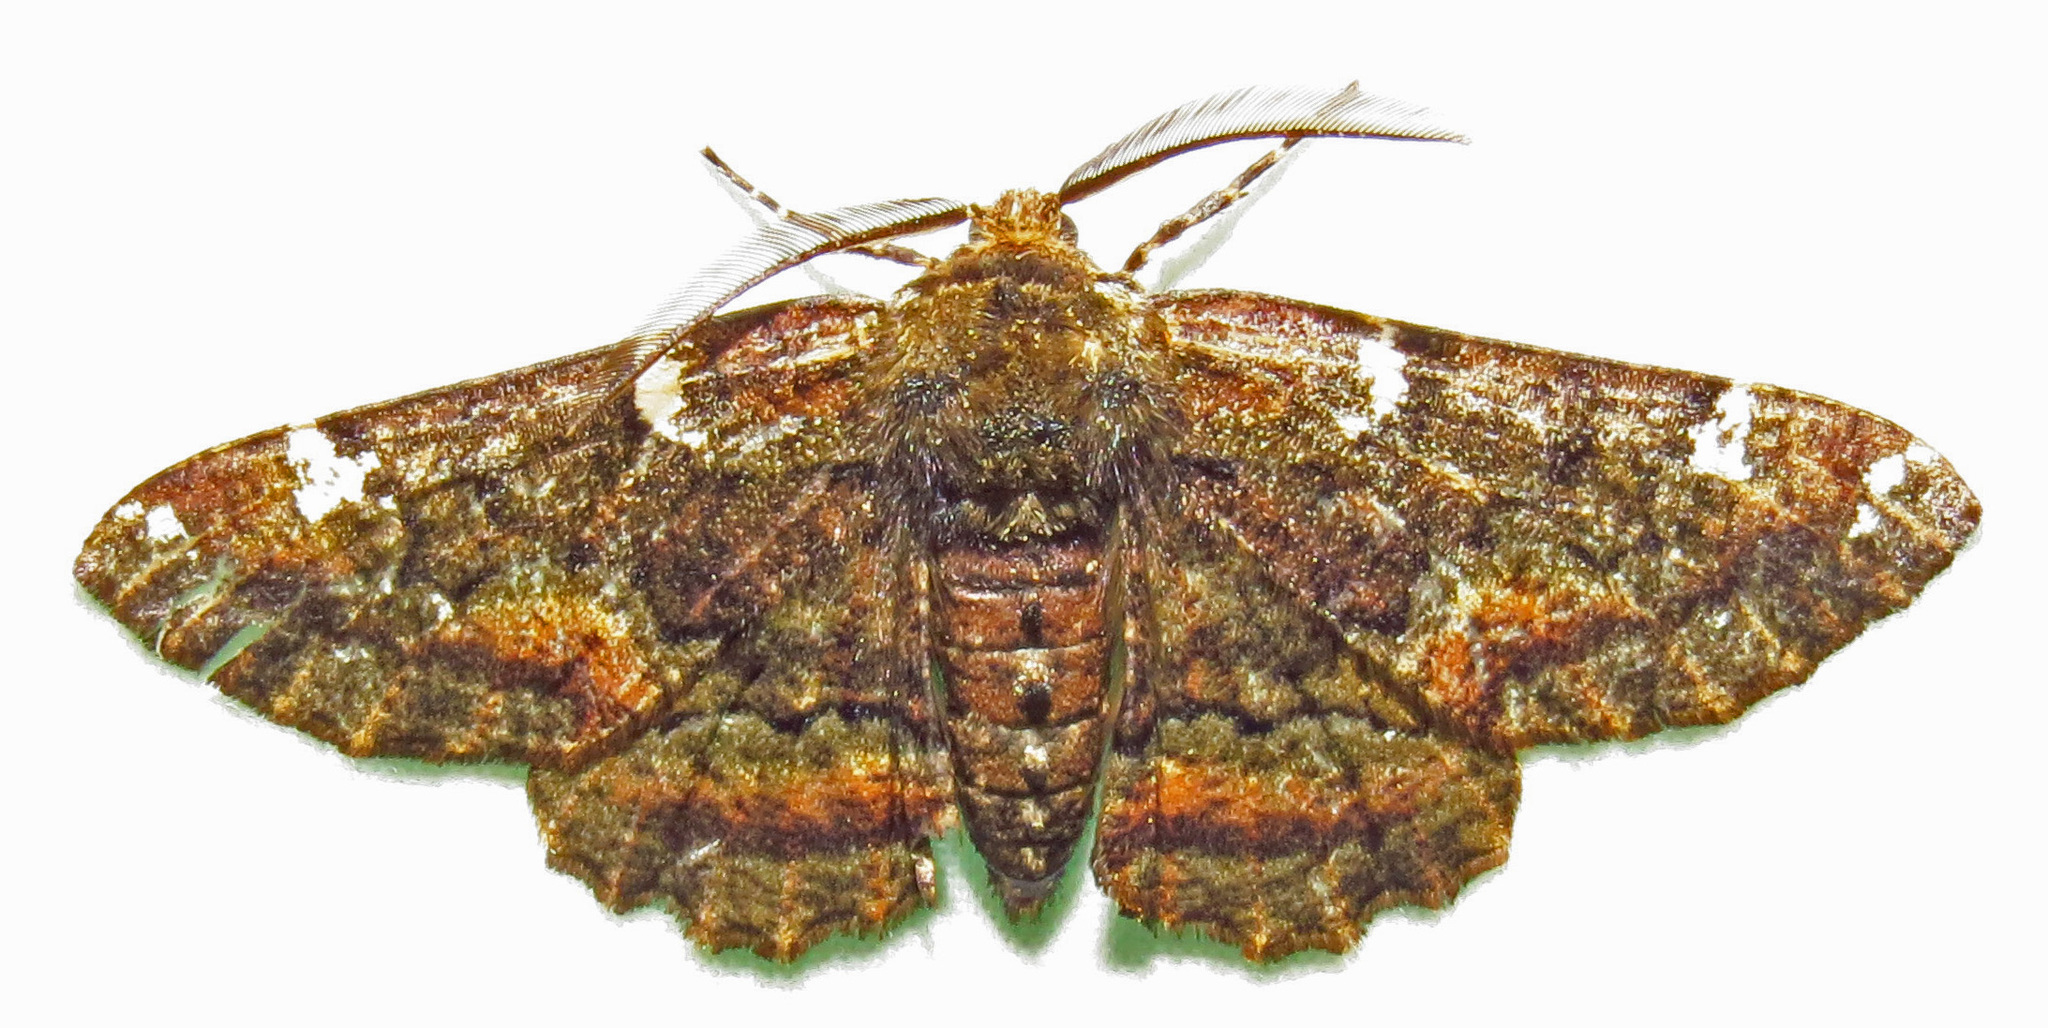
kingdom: Animalia
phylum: Arthropoda
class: Insecta
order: Lepidoptera
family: Geometridae
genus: Phaeoura
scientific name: Phaeoura quernaria
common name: Oak beauty
